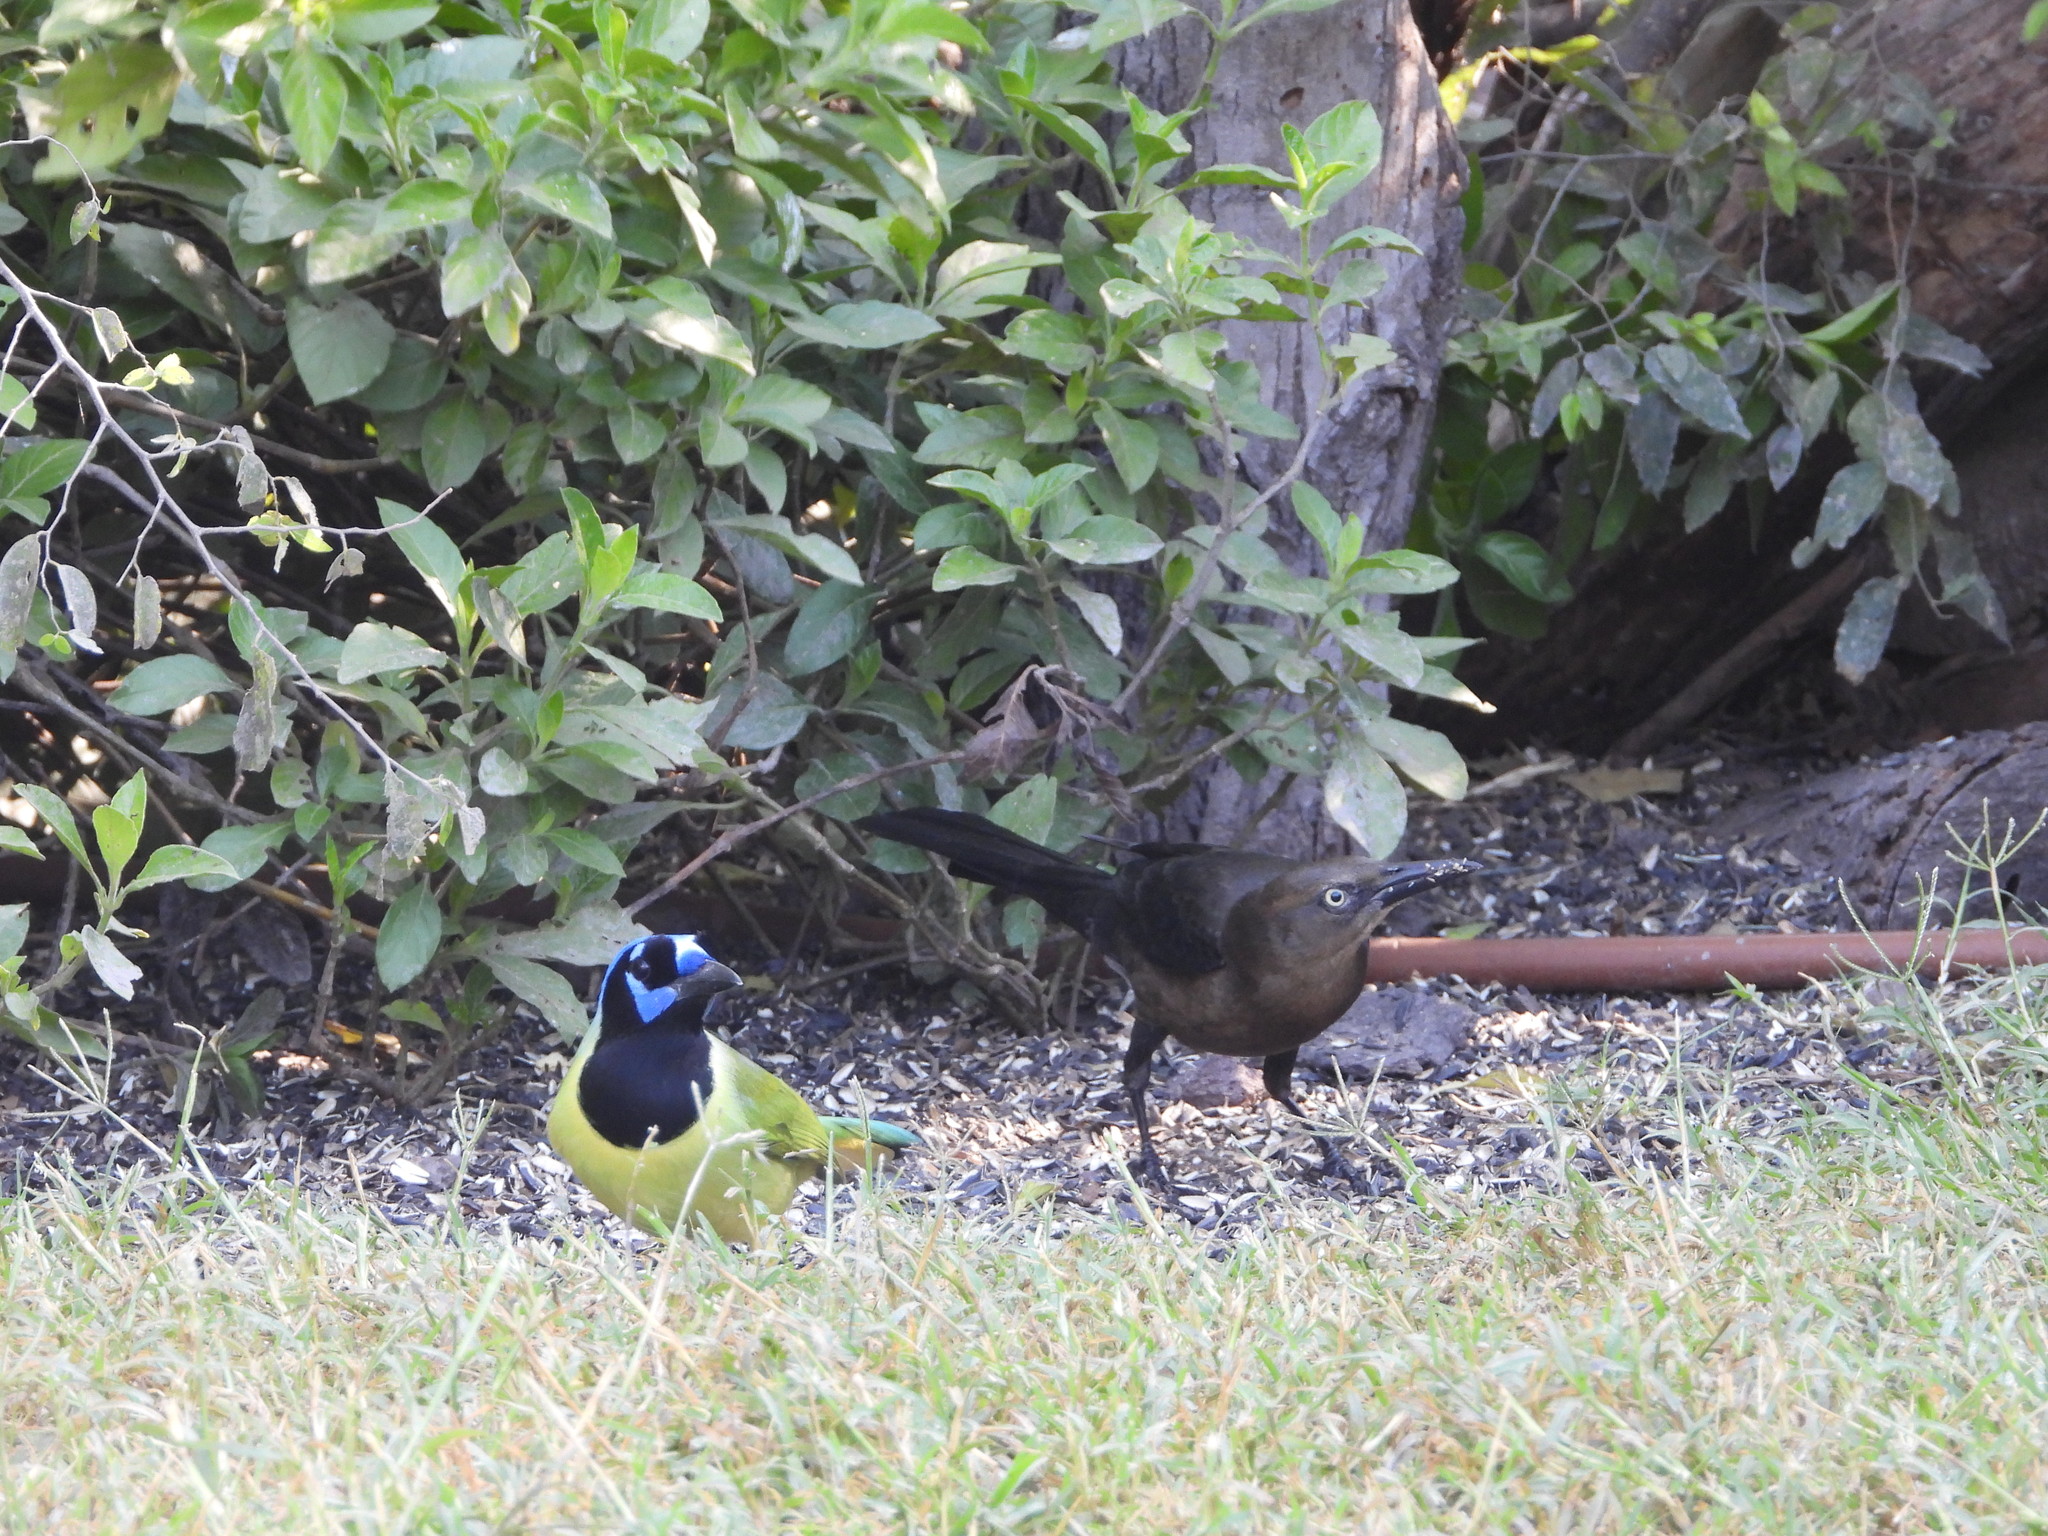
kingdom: Animalia
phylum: Chordata
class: Aves
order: Passeriformes
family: Icteridae
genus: Quiscalus
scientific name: Quiscalus mexicanus
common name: Great-tailed grackle
